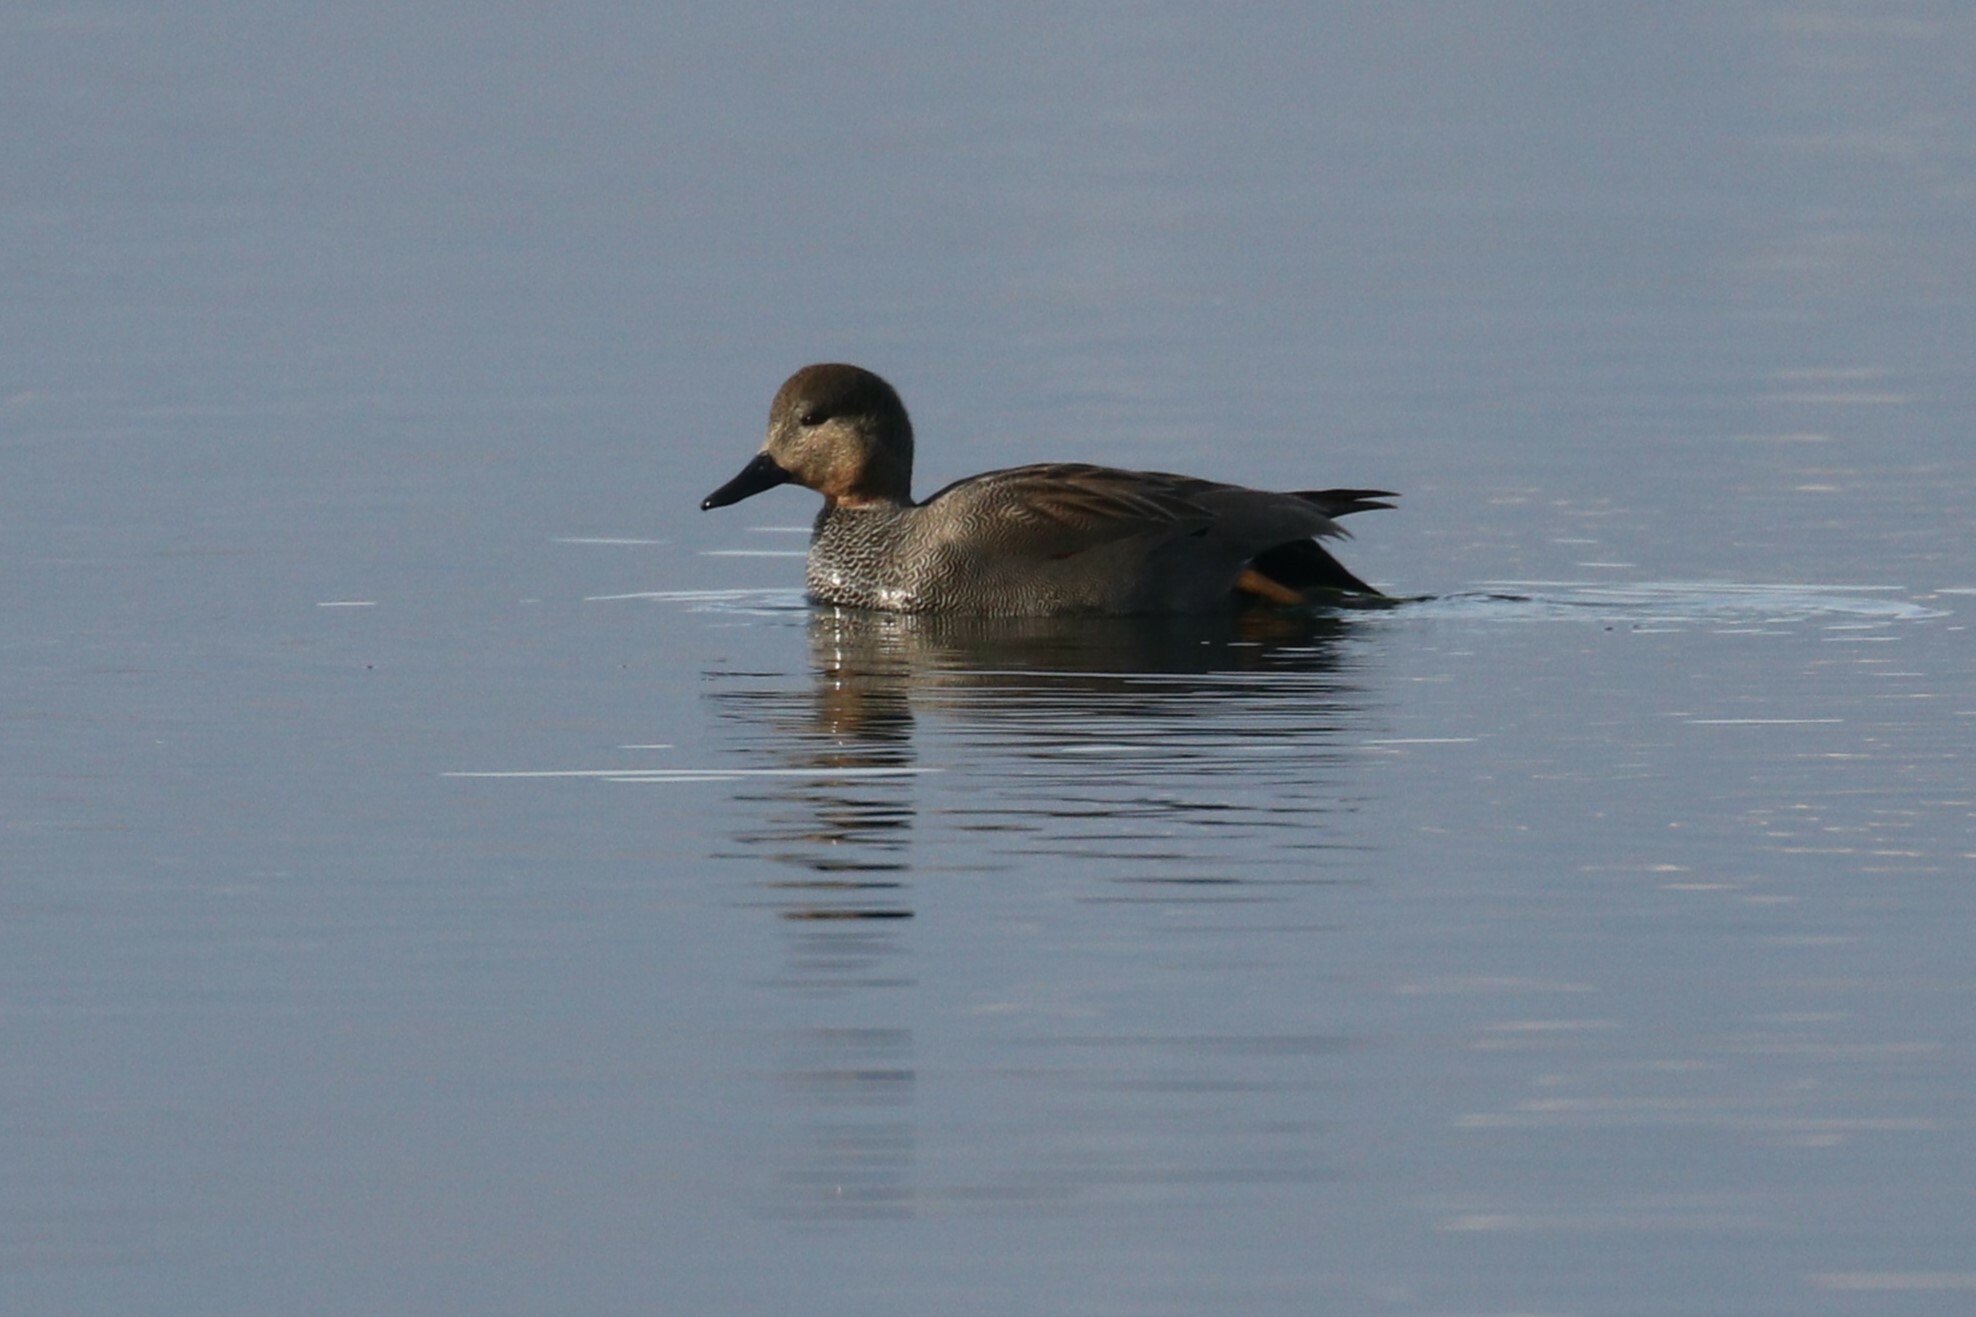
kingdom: Animalia
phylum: Chordata
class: Aves
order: Anseriformes
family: Anatidae
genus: Mareca
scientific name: Mareca strepera
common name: Gadwall
